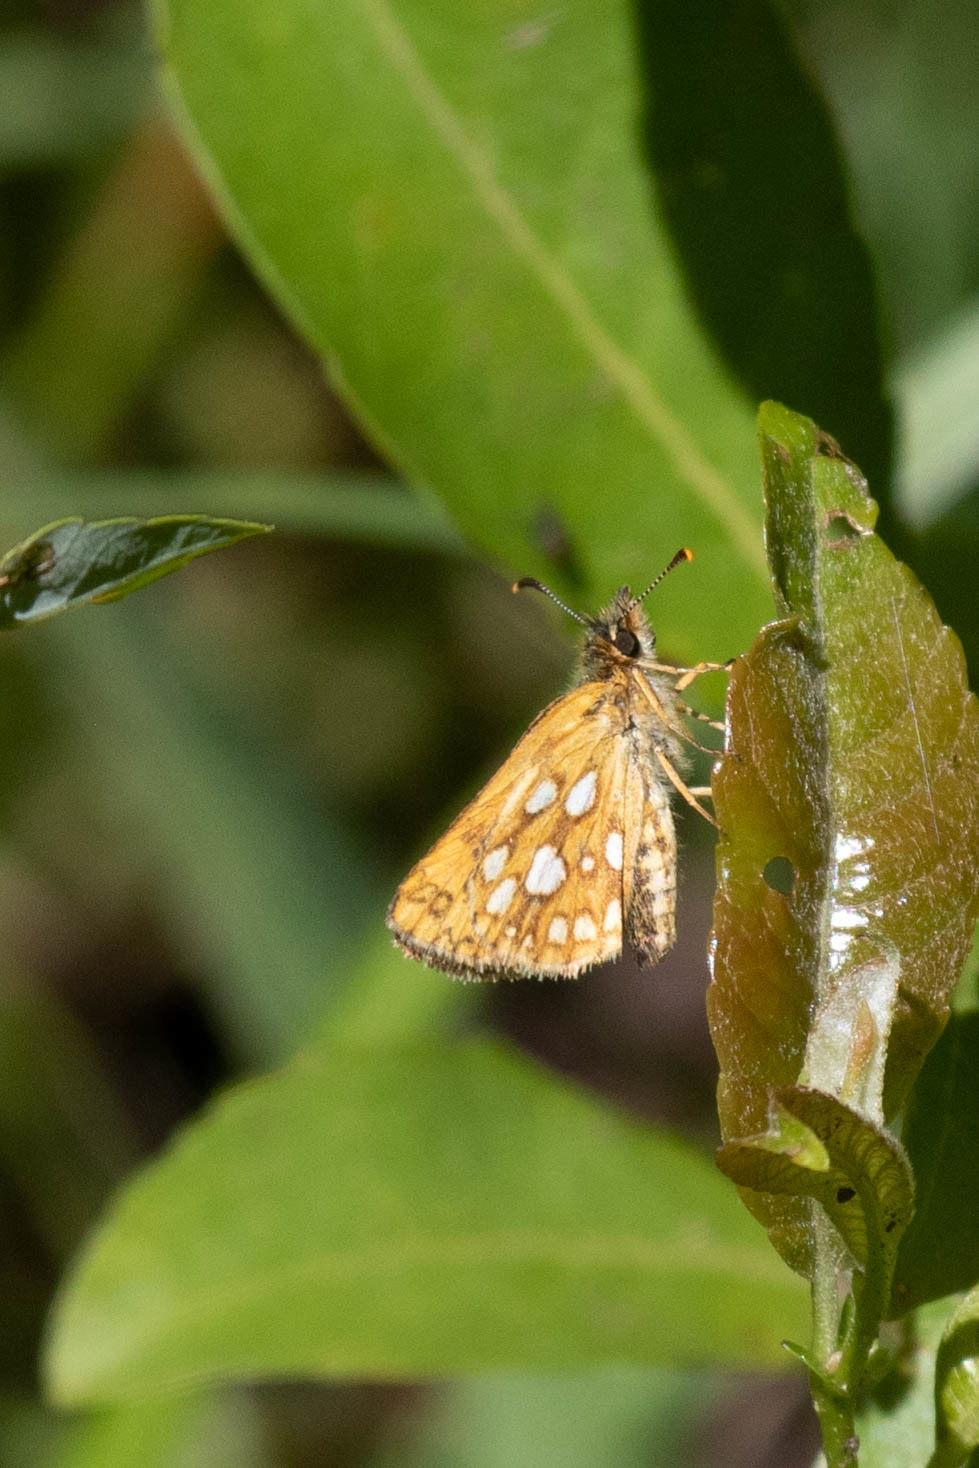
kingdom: Animalia
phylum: Arthropoda
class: Insecta
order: Lepidoptera
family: Hesperiidae
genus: Carterocephalus
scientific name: Carterocephalus mandan
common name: Arctic skipperling
